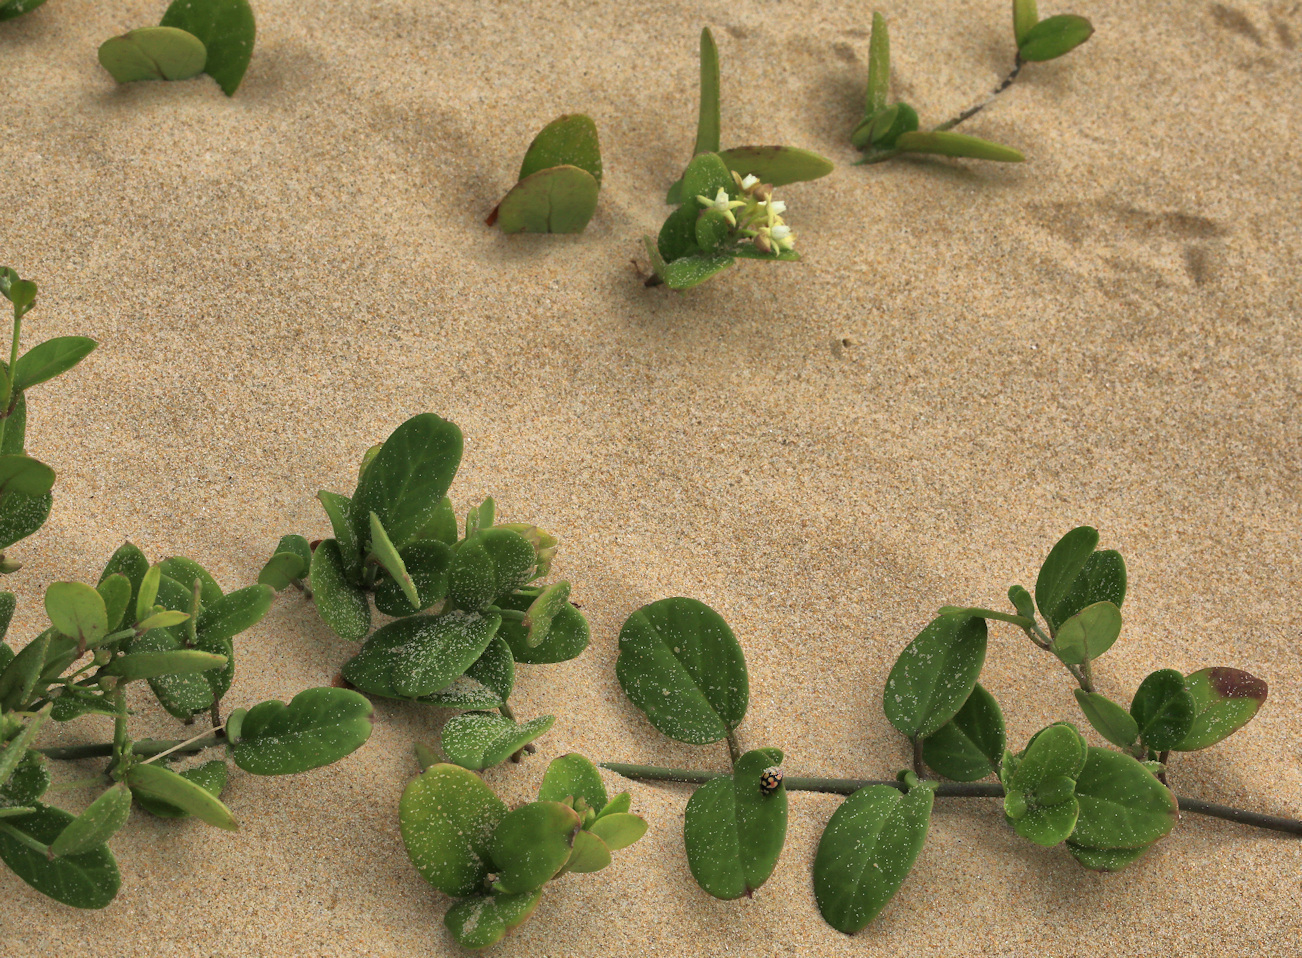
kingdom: Plantae
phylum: Tracheophyta
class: Magnoliopsida
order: Gentianales
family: Apocynaceae
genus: Cynanchum
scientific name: Cynanchum natalitium
